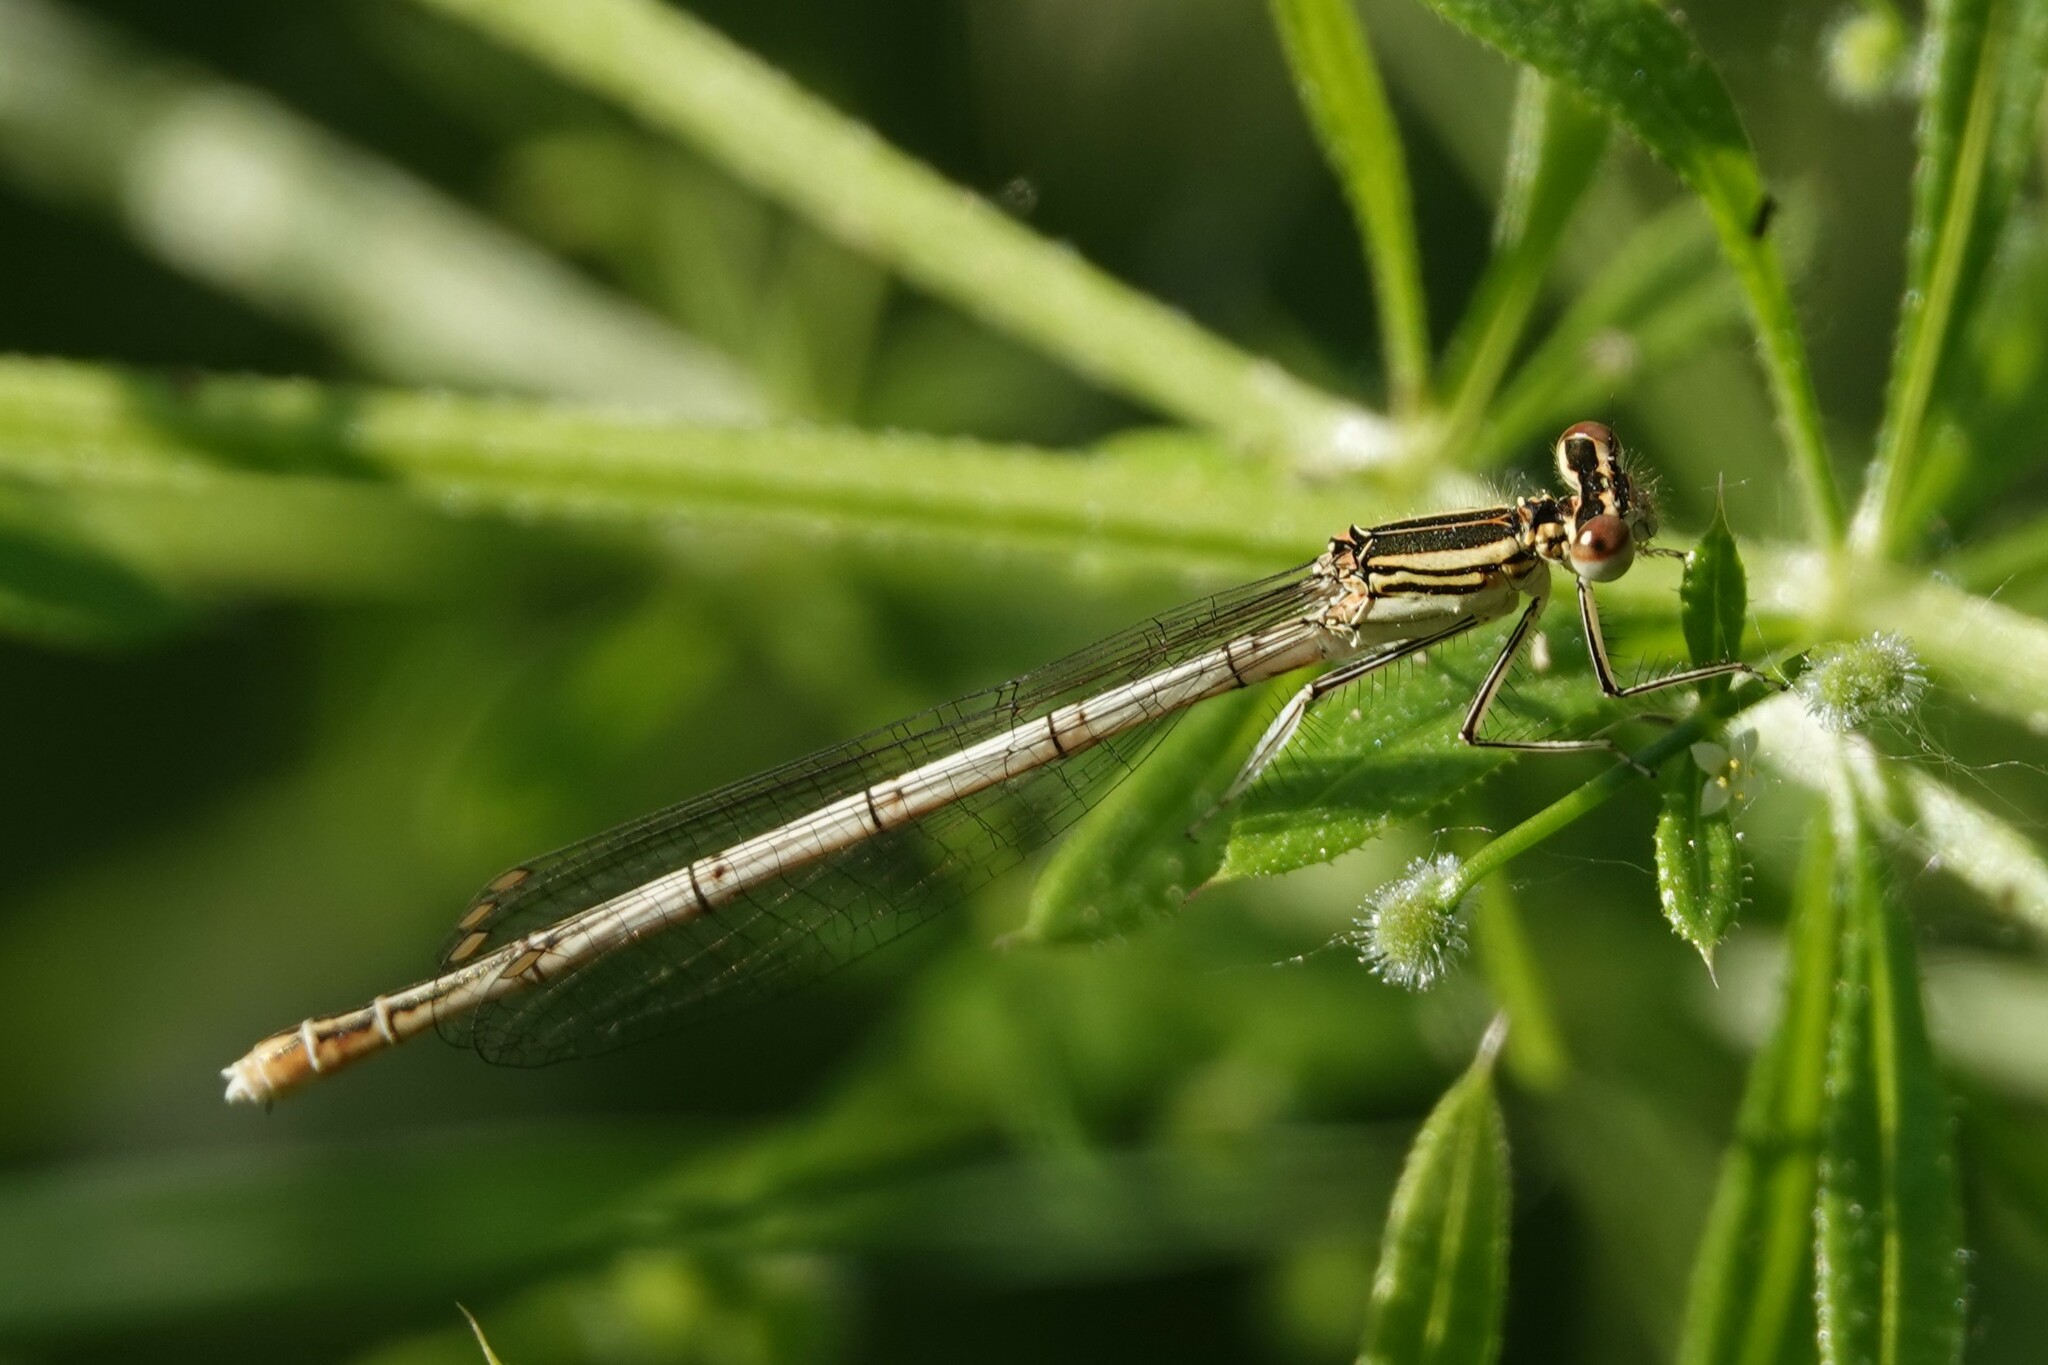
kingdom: Animalia
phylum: Arthropoda
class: Insecta
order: Odonata
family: Platycnemididae
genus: Platycnemis
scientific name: Platycnemis pennipes
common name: White-legged damselfly
